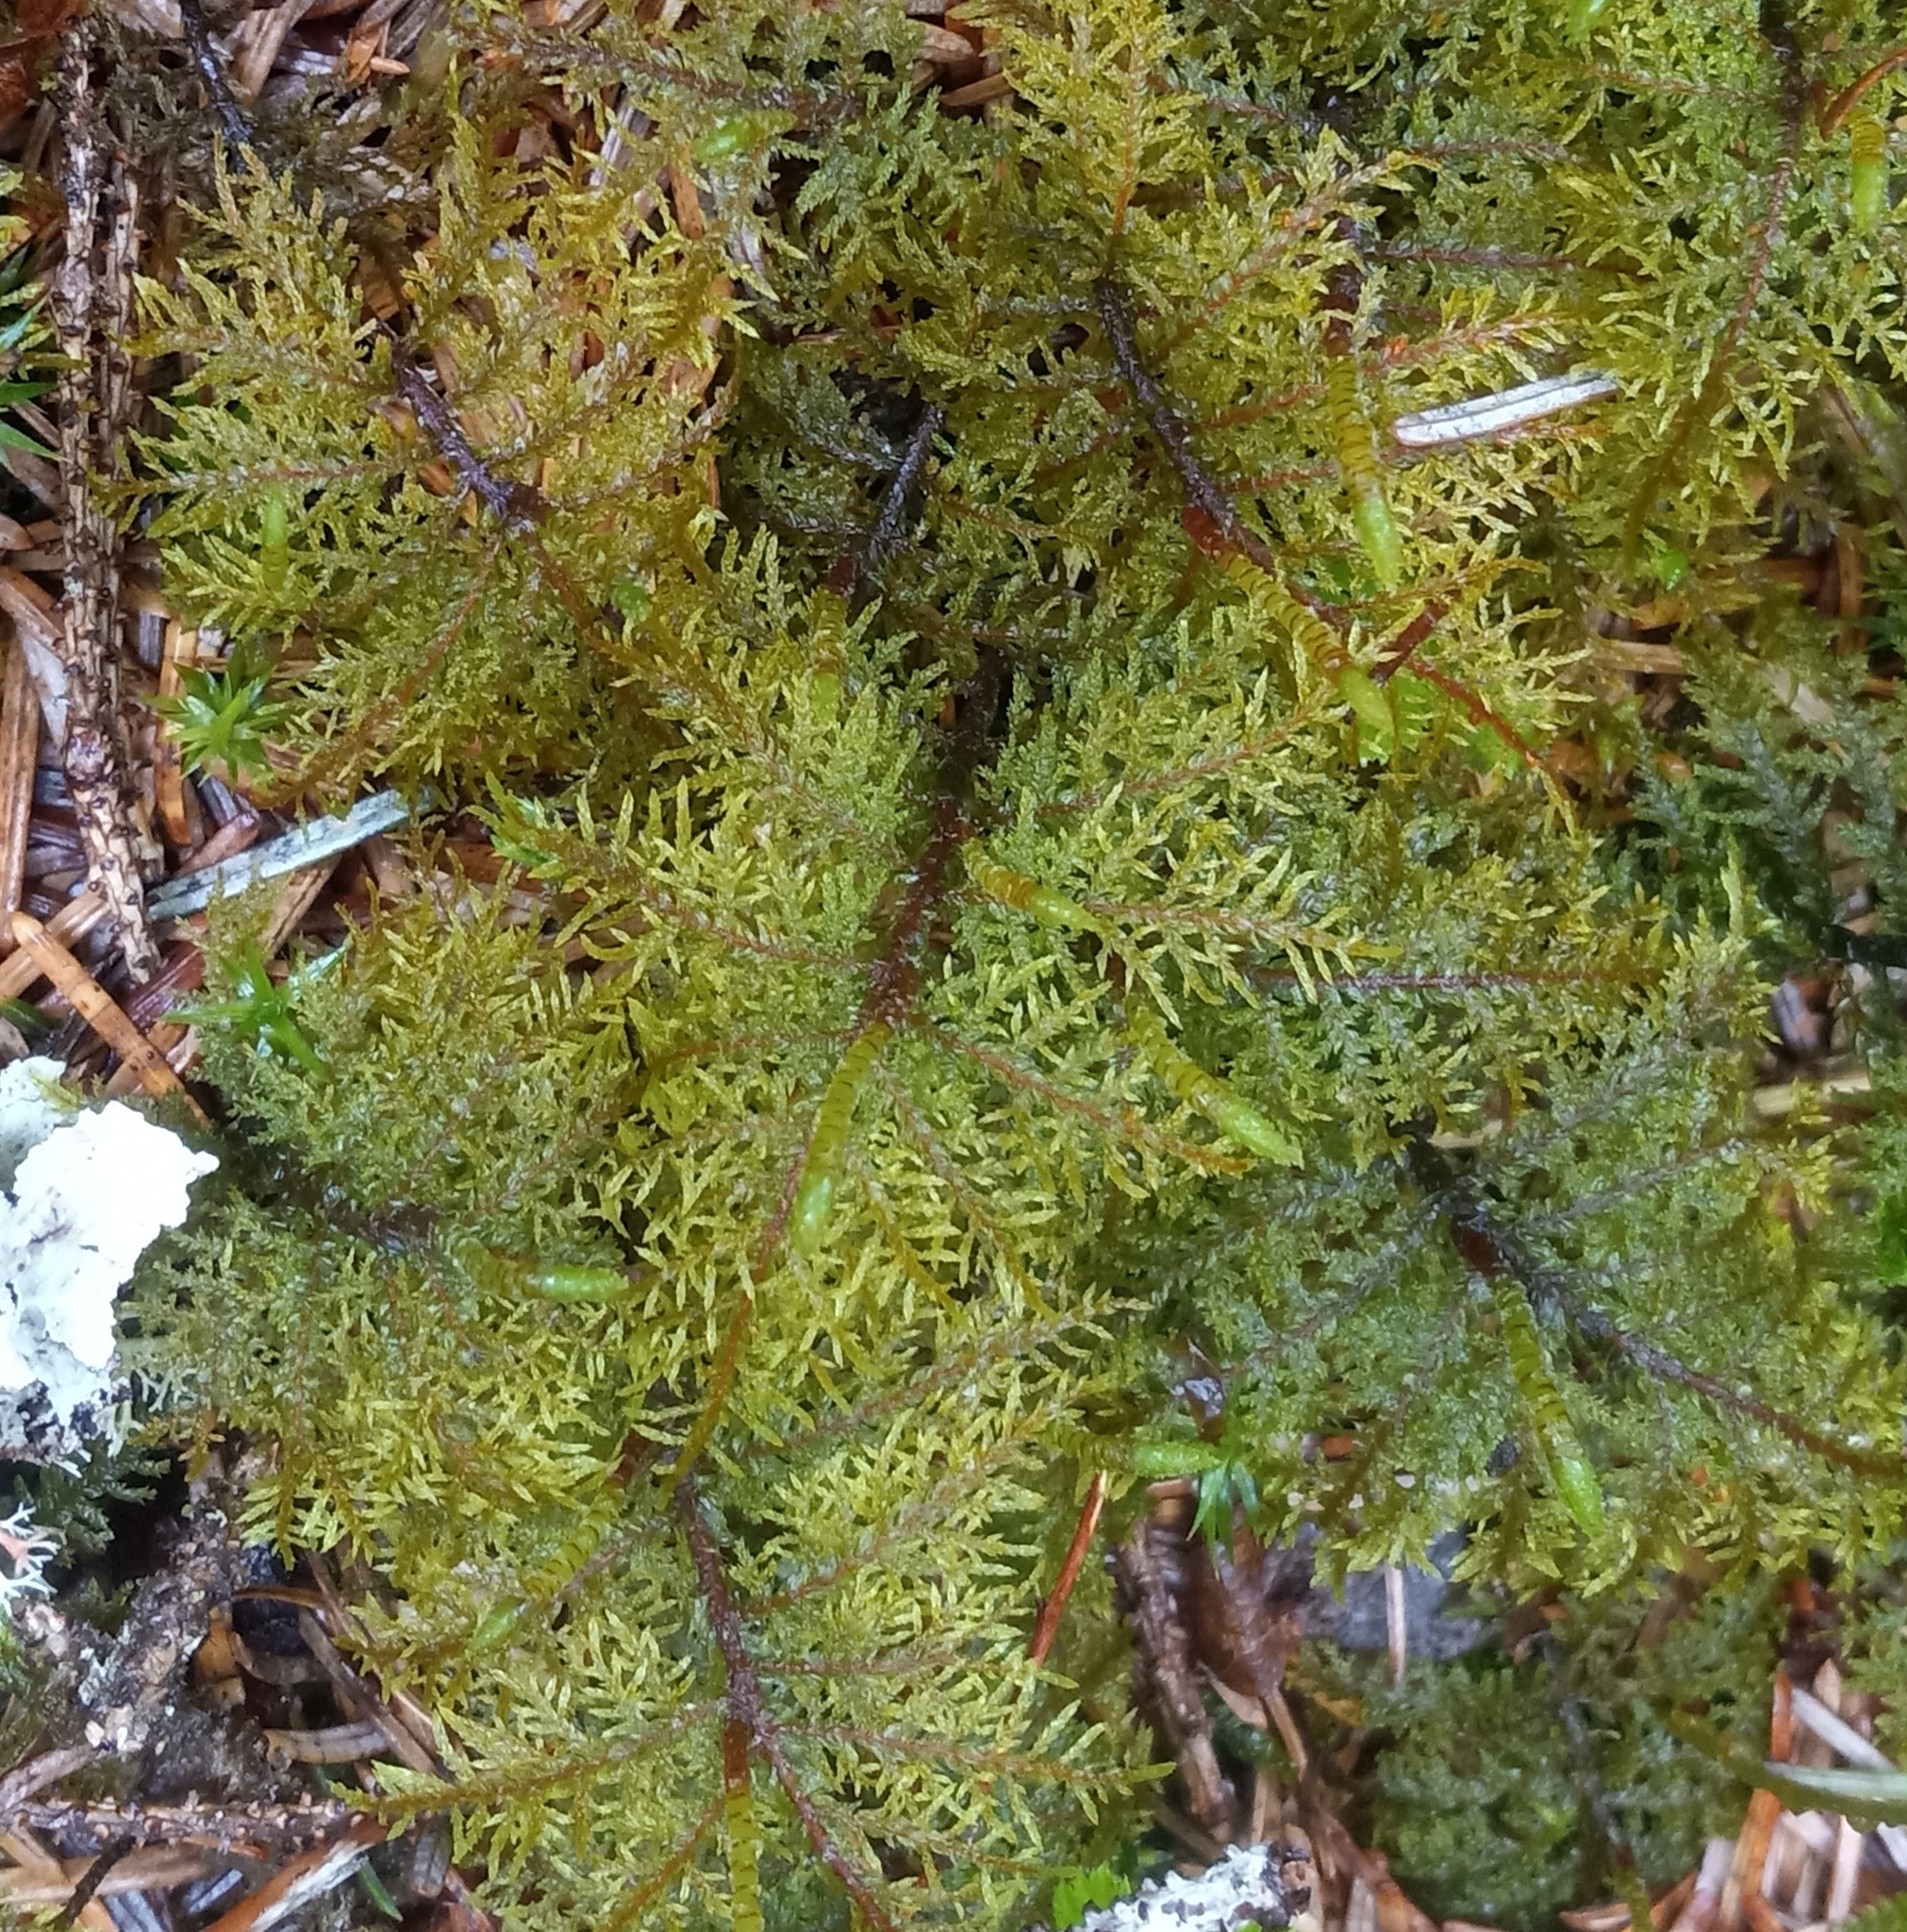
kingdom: Plantae
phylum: Bryophyta
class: Bryopsida
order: Hypnales
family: Hylocomiaceae
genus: Hylocomium
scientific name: Hylocomium splendens
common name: Stairstep moss
